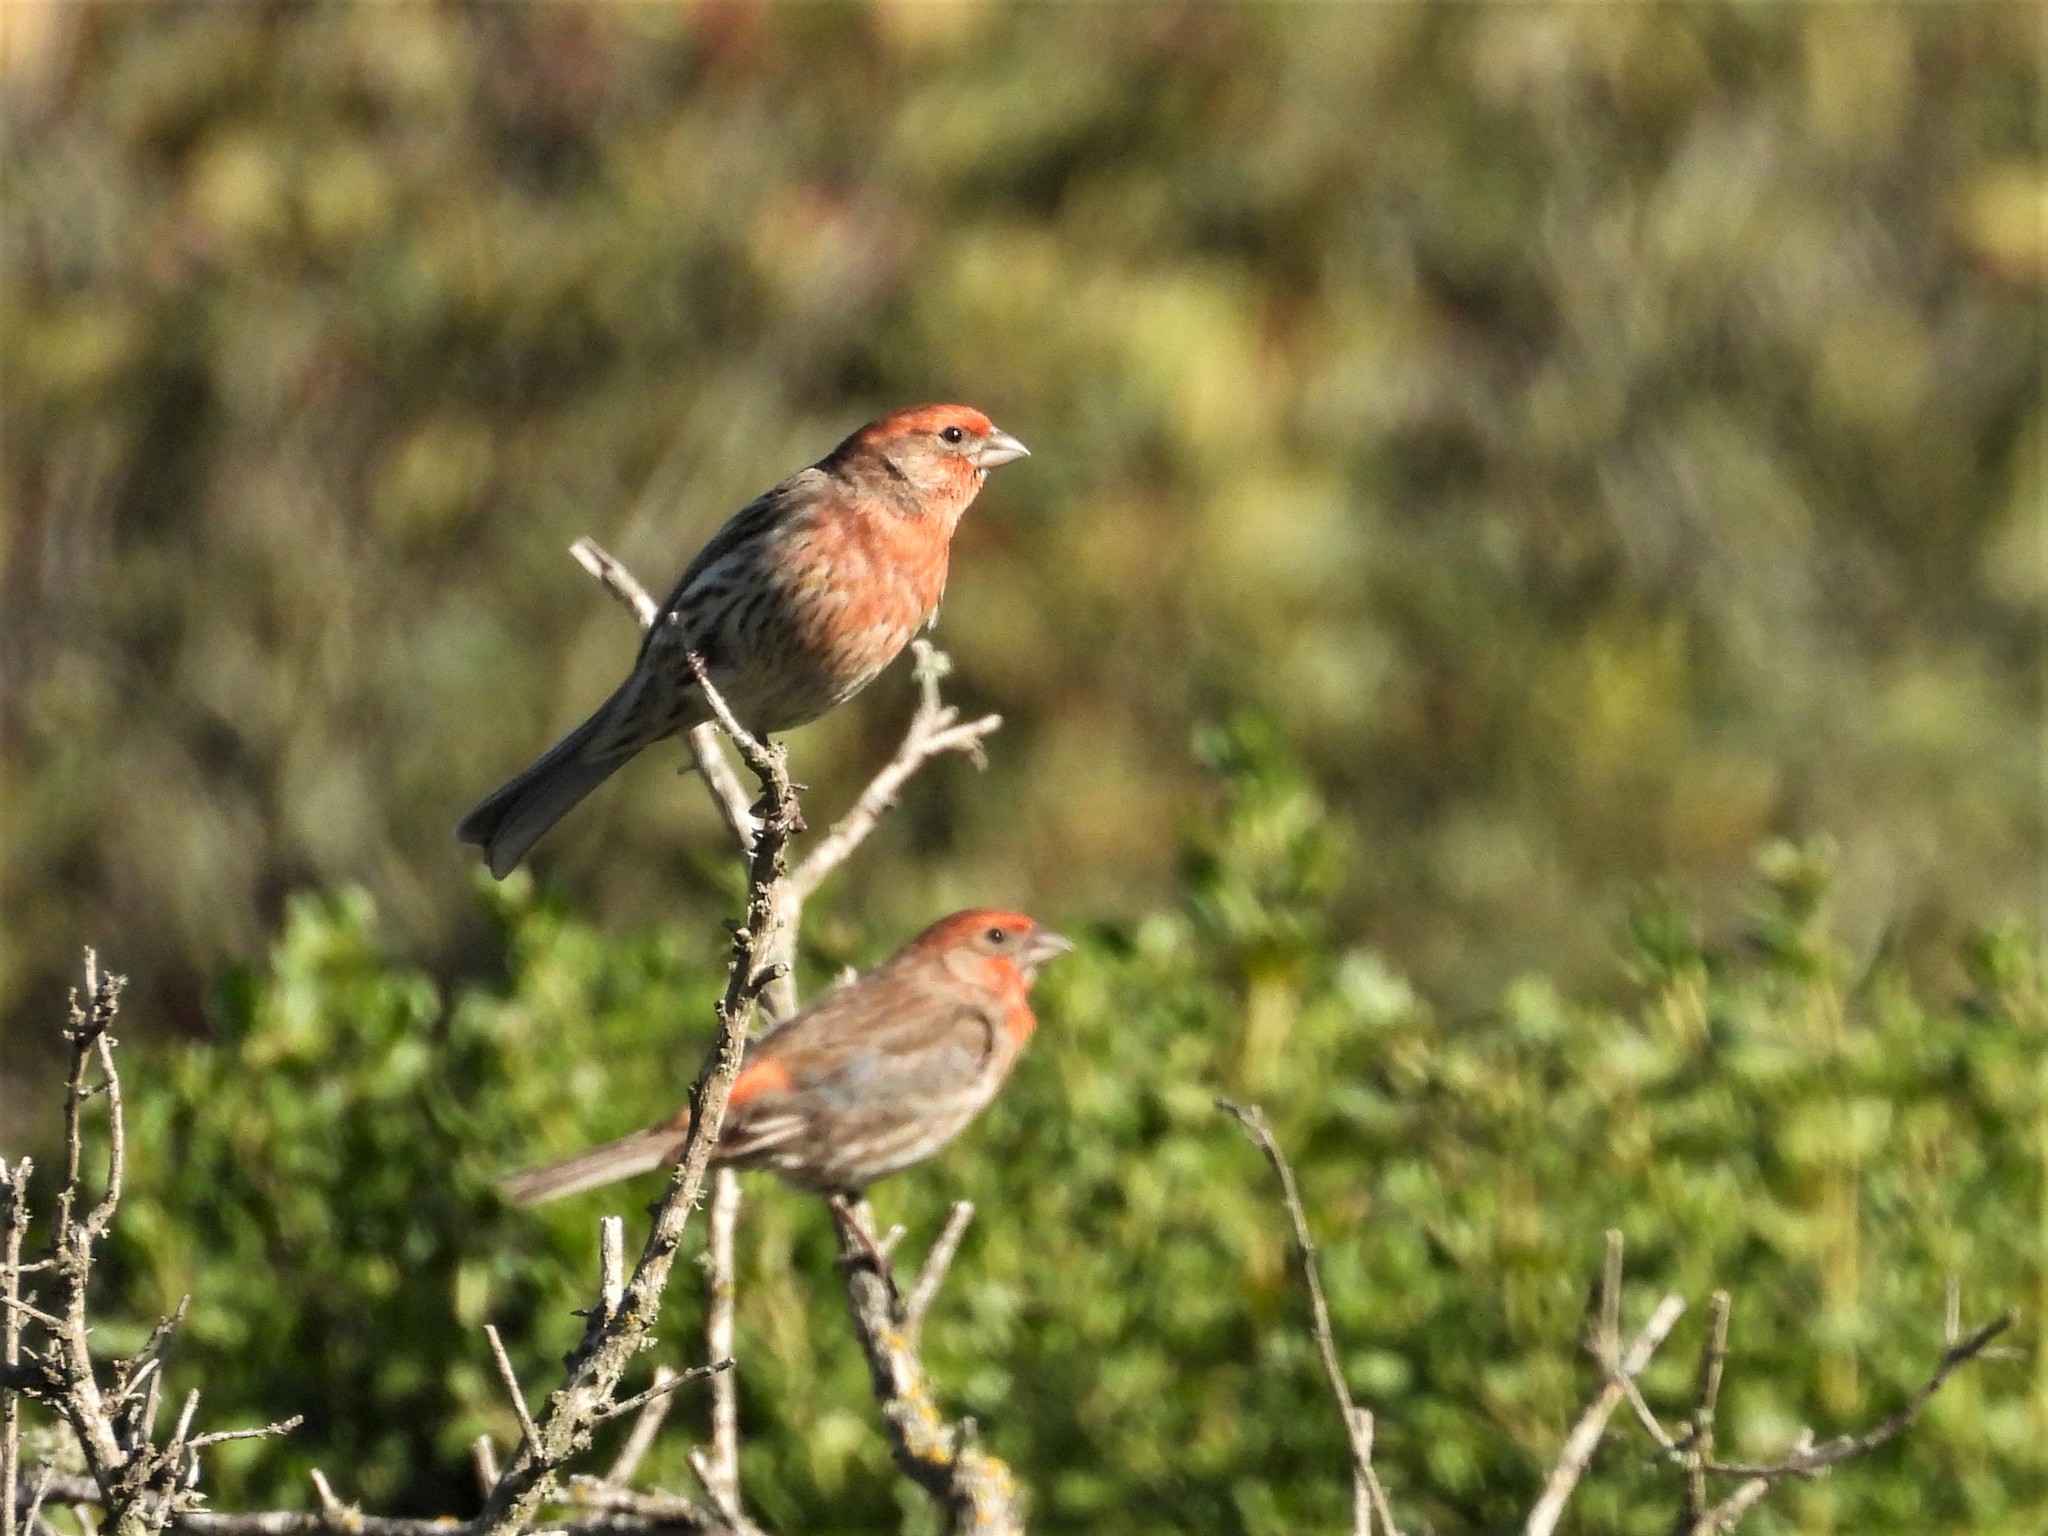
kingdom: Animalia
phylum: Chordata
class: Aves
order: Passeriformes
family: Fringillidae
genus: Haemorhous
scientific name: Haemorhous mexicanus
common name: House finch
